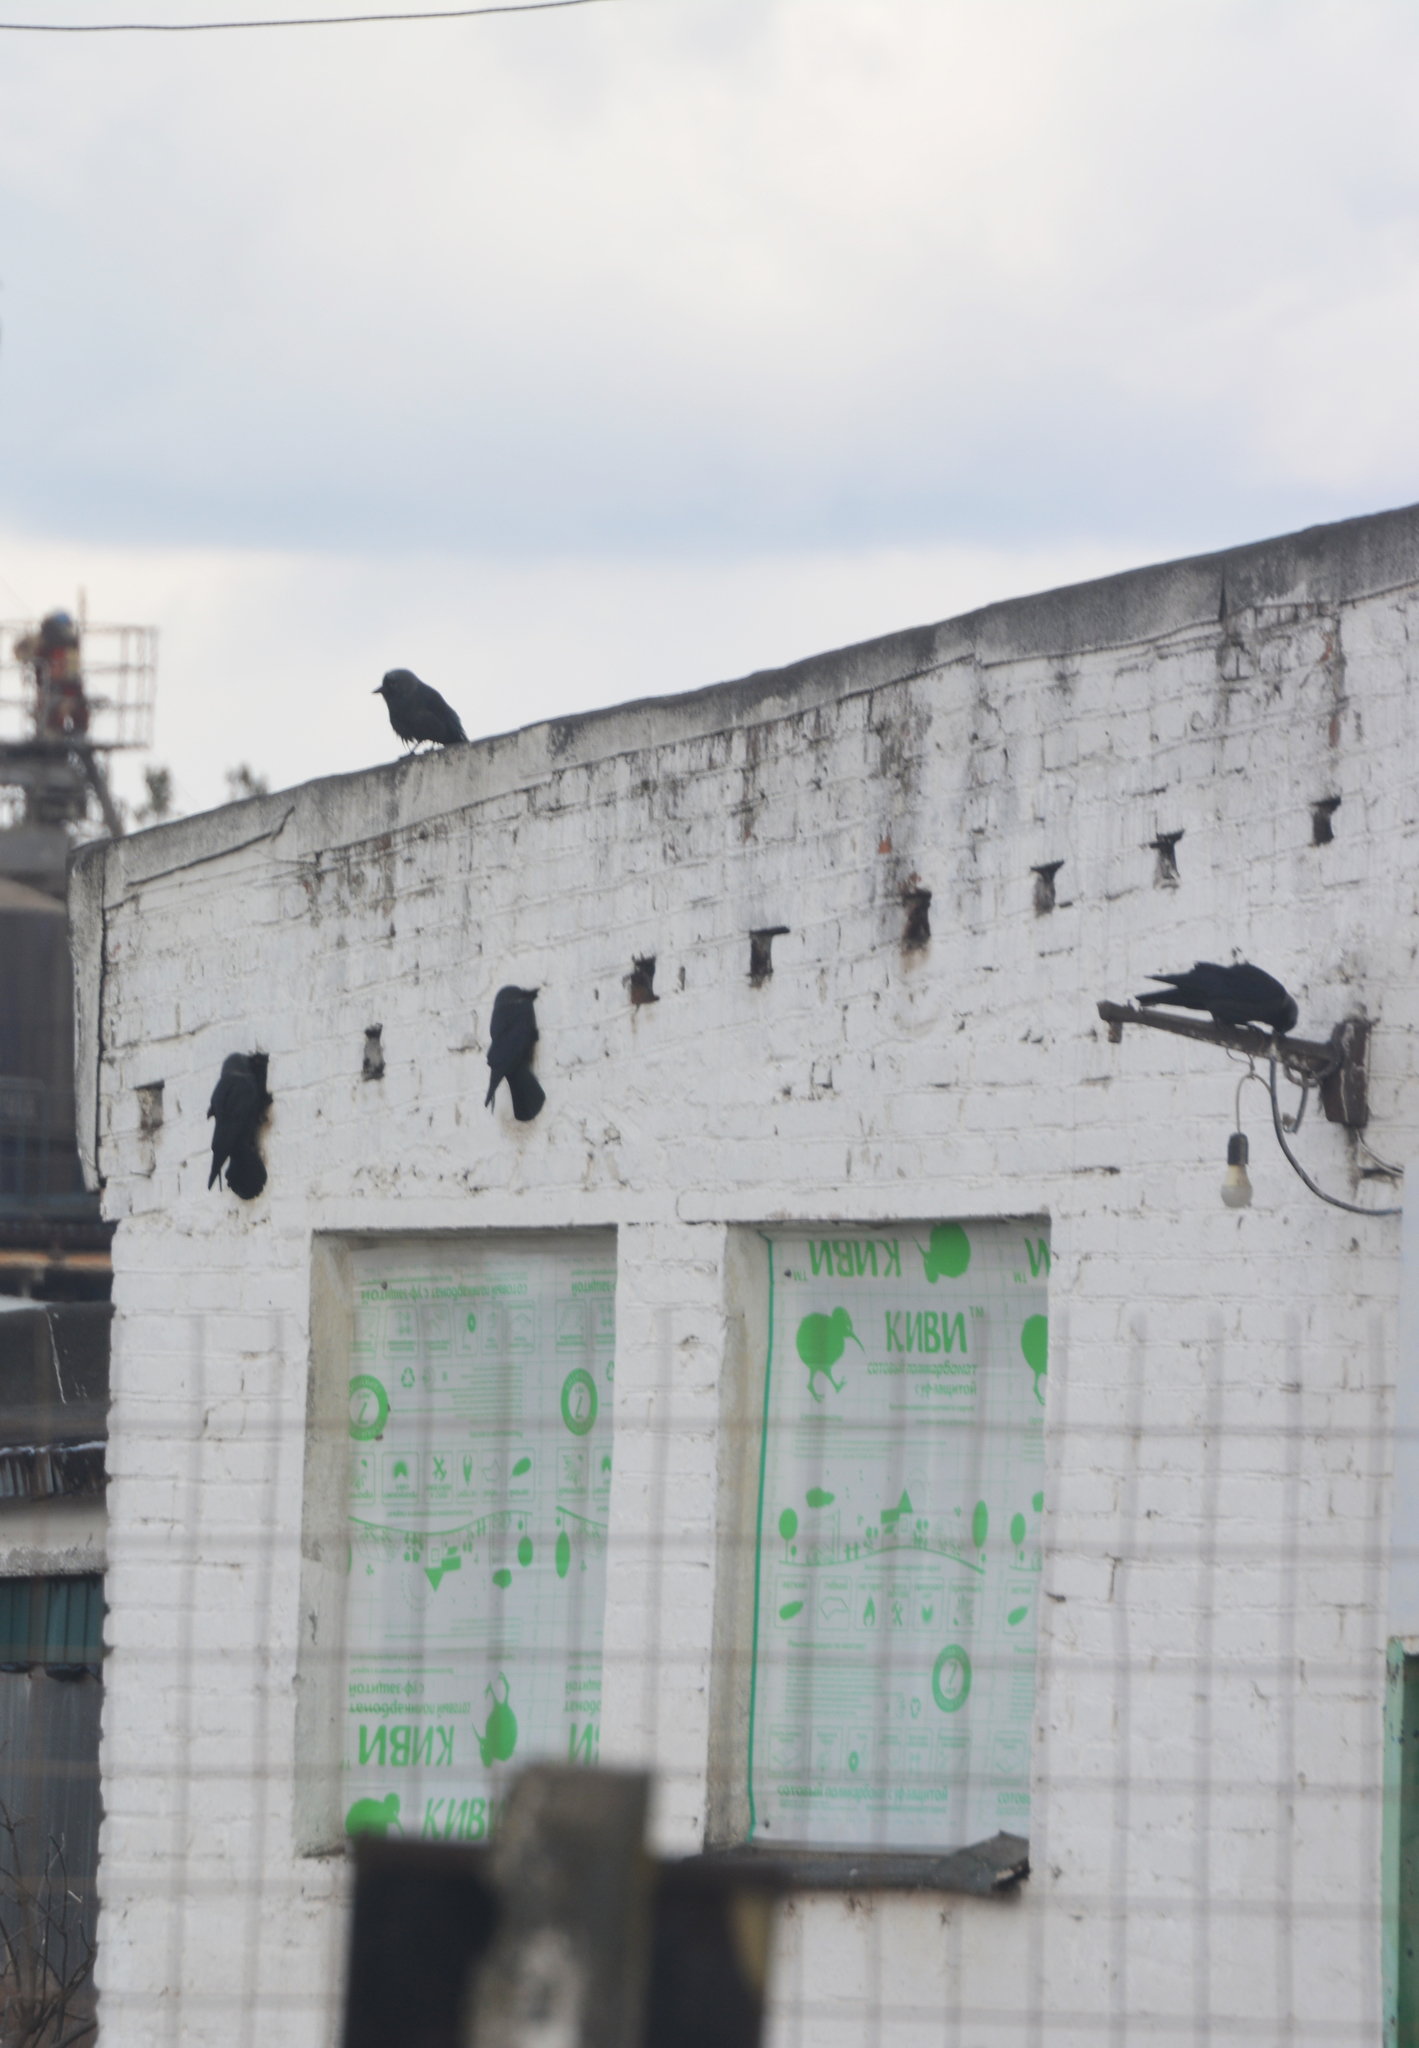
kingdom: Animalia
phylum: Chordata
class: Aves
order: Passeriformes
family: Corvidae
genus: Coloeus
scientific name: Coloeus monedula
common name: Western jackdaw
